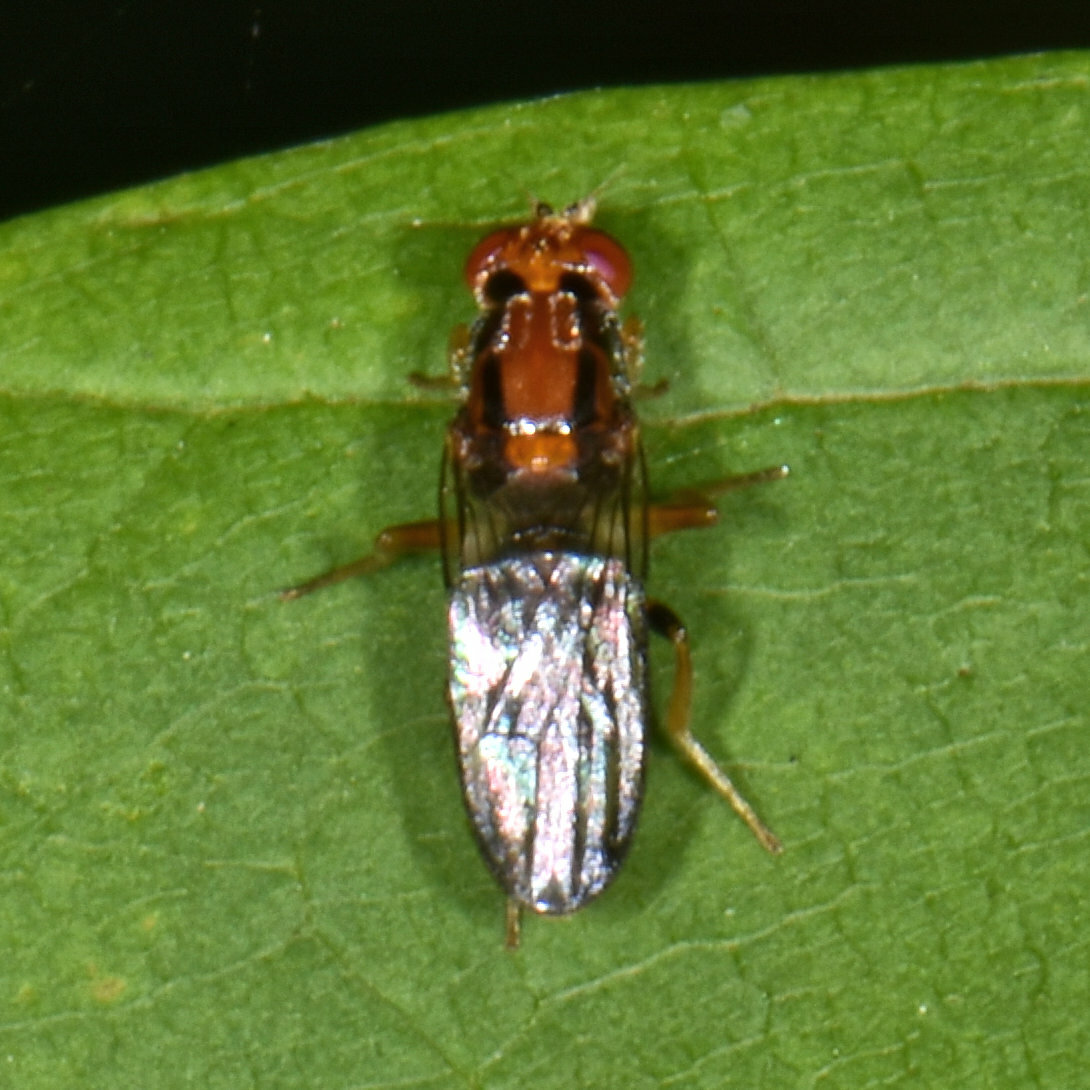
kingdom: Animalia
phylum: Arthropoda
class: Insecta
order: Diptera
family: Psilidae
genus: Chyliza
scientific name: Chyliza apicalis
